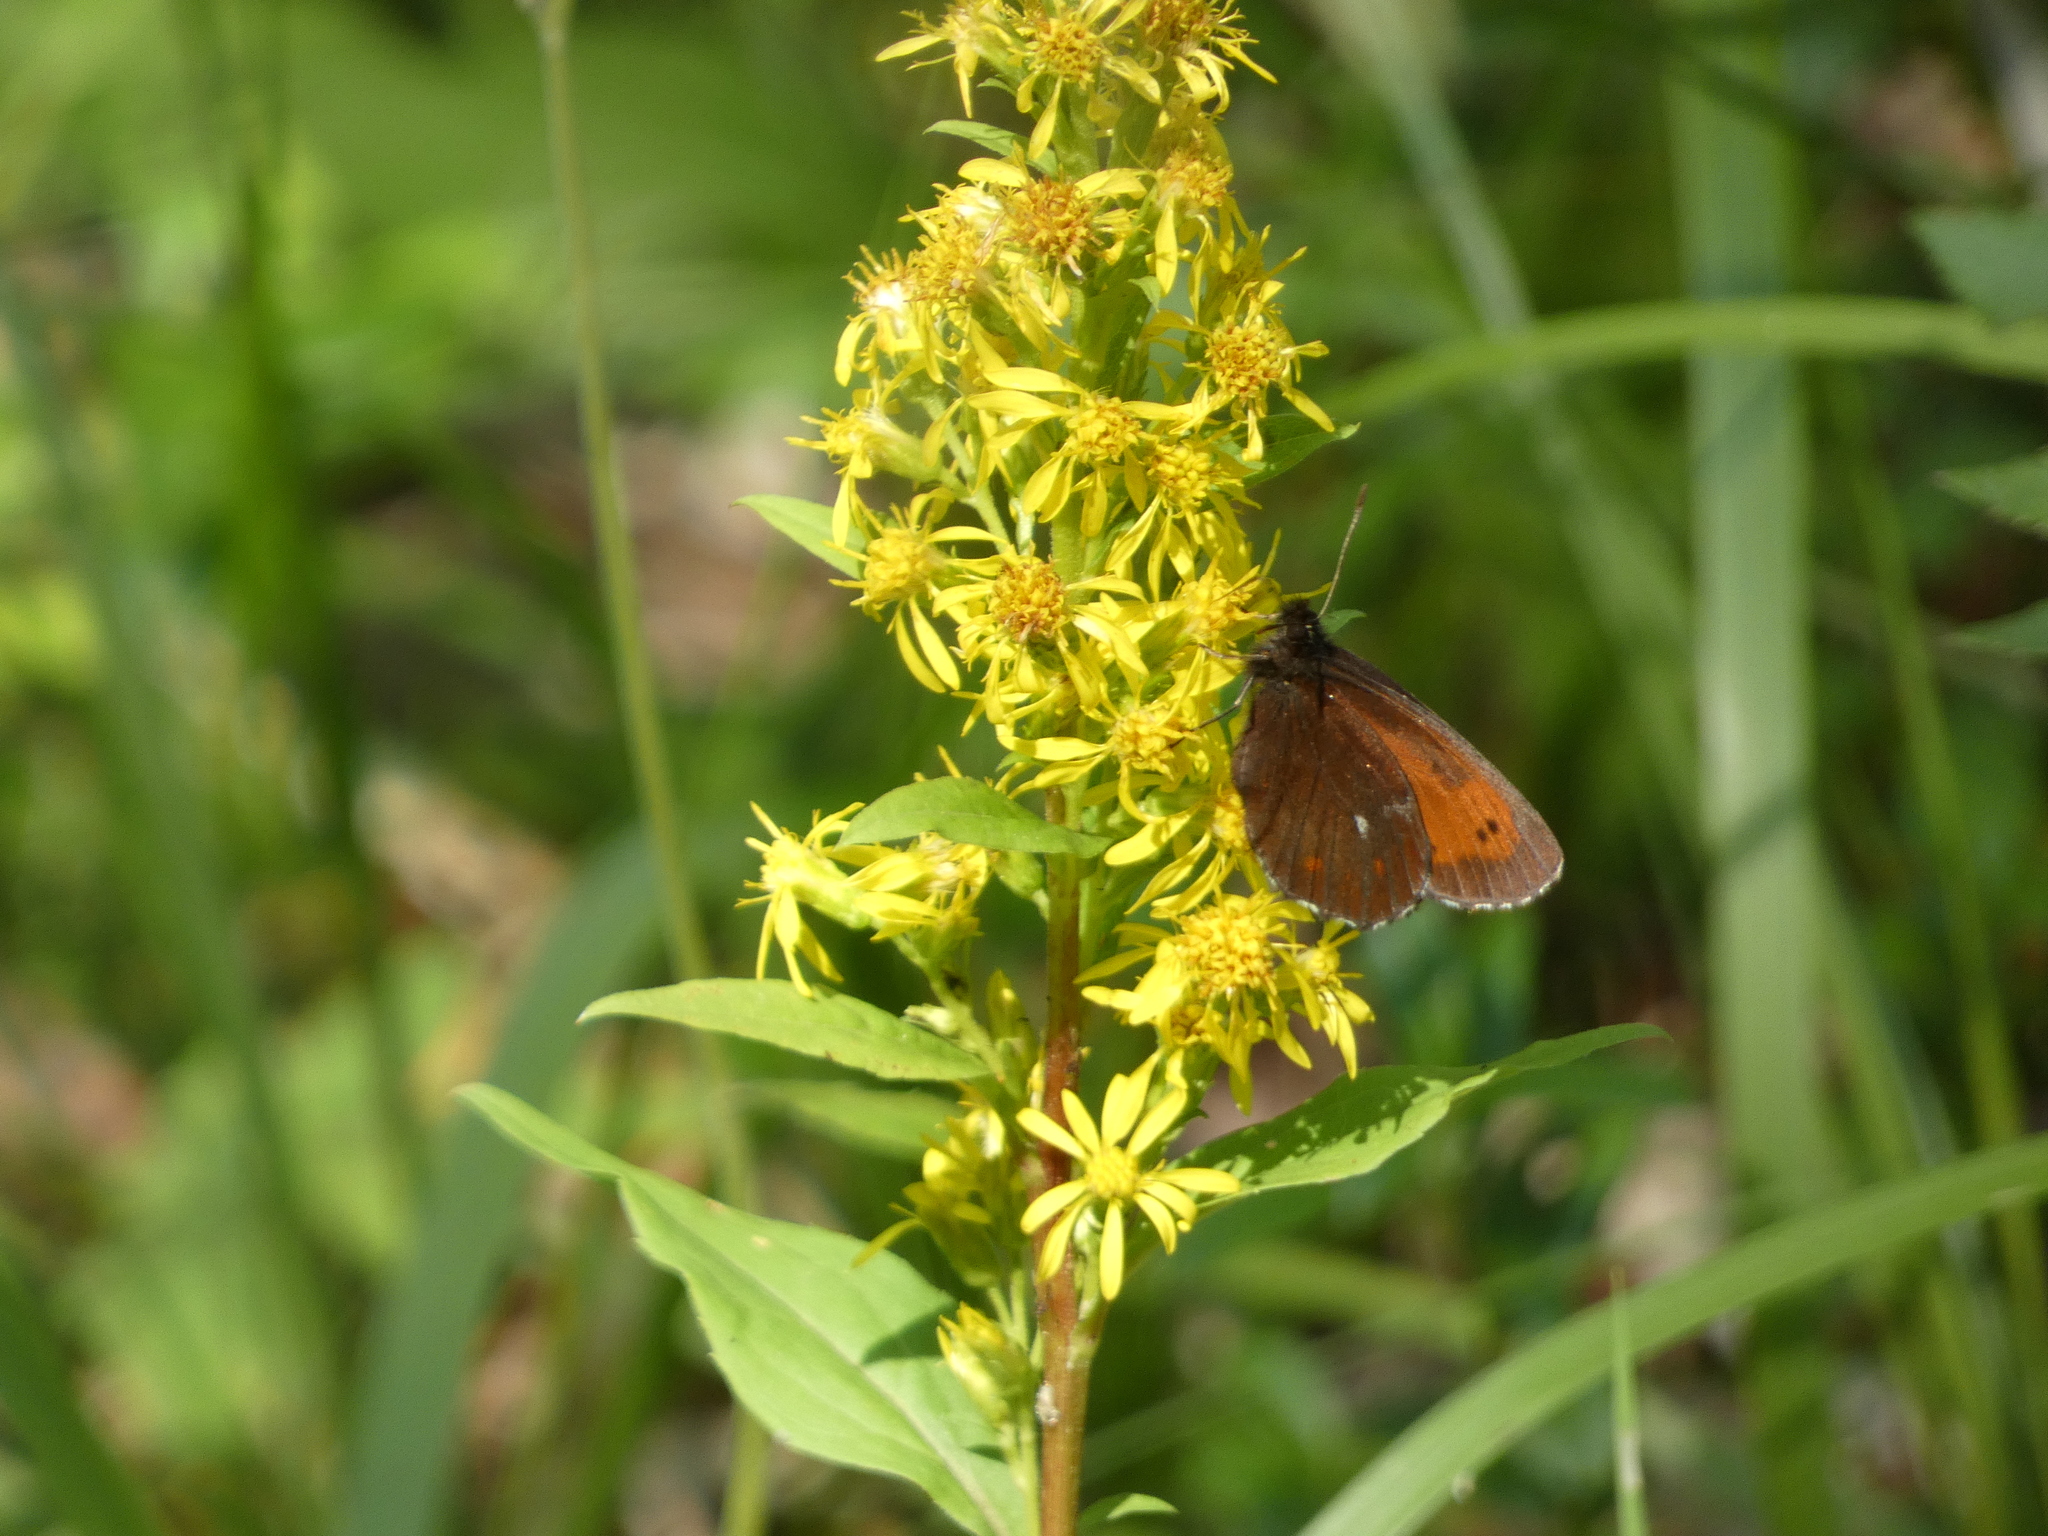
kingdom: Animalia
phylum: Arthropoda
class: Insecta
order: Lepidoptera
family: Nymphalidae
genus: Erebia
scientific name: Erebia euryale
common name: Large ringlet
